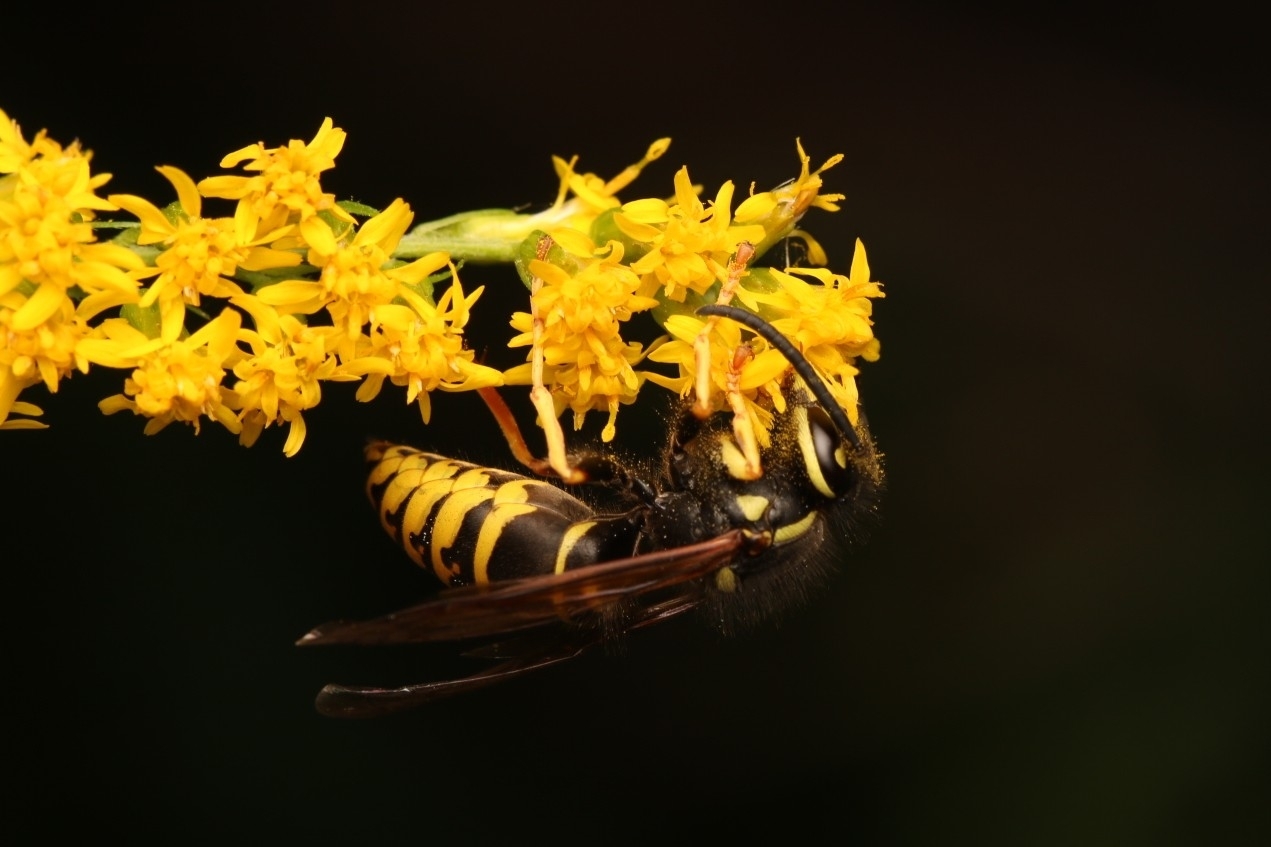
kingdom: Animalia
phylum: Arthropoda
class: Insecta
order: Hymenoptera
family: Vespidae
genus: Vespula
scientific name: Vespula vidua
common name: Widow yellowjacket
